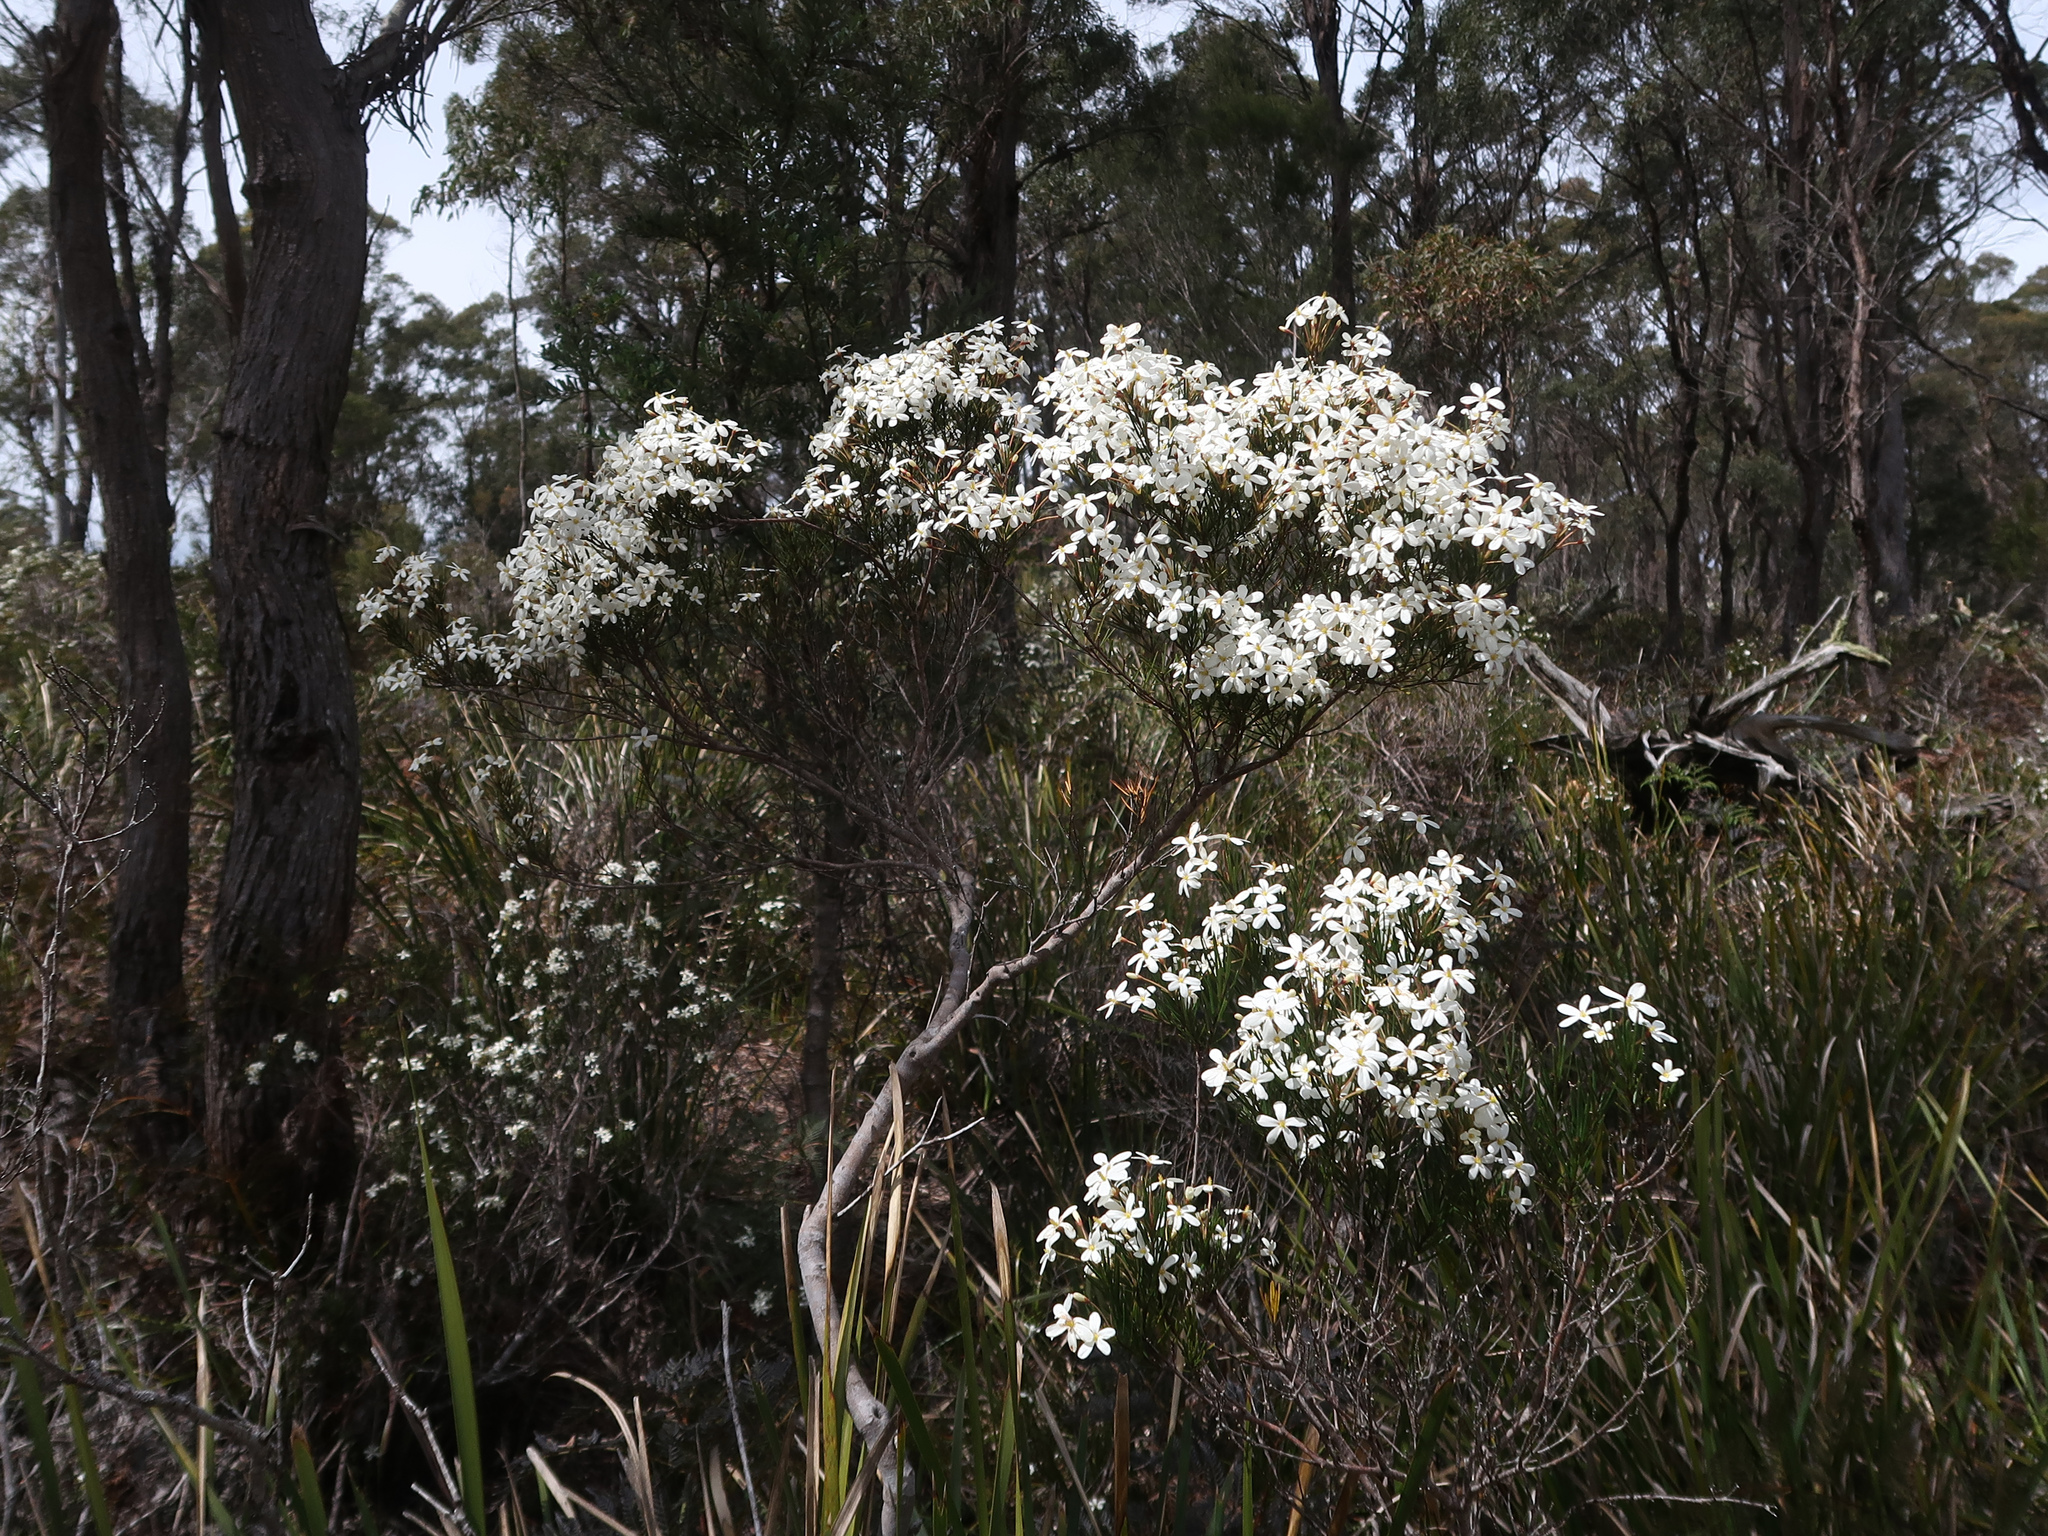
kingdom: Plantae
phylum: Tracheophyta
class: Magnoliopsida
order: Malpighiales
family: Euphorbiaceae
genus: Ricinocarpos
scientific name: Ricinocarpos pinifolius
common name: Weddingbush
